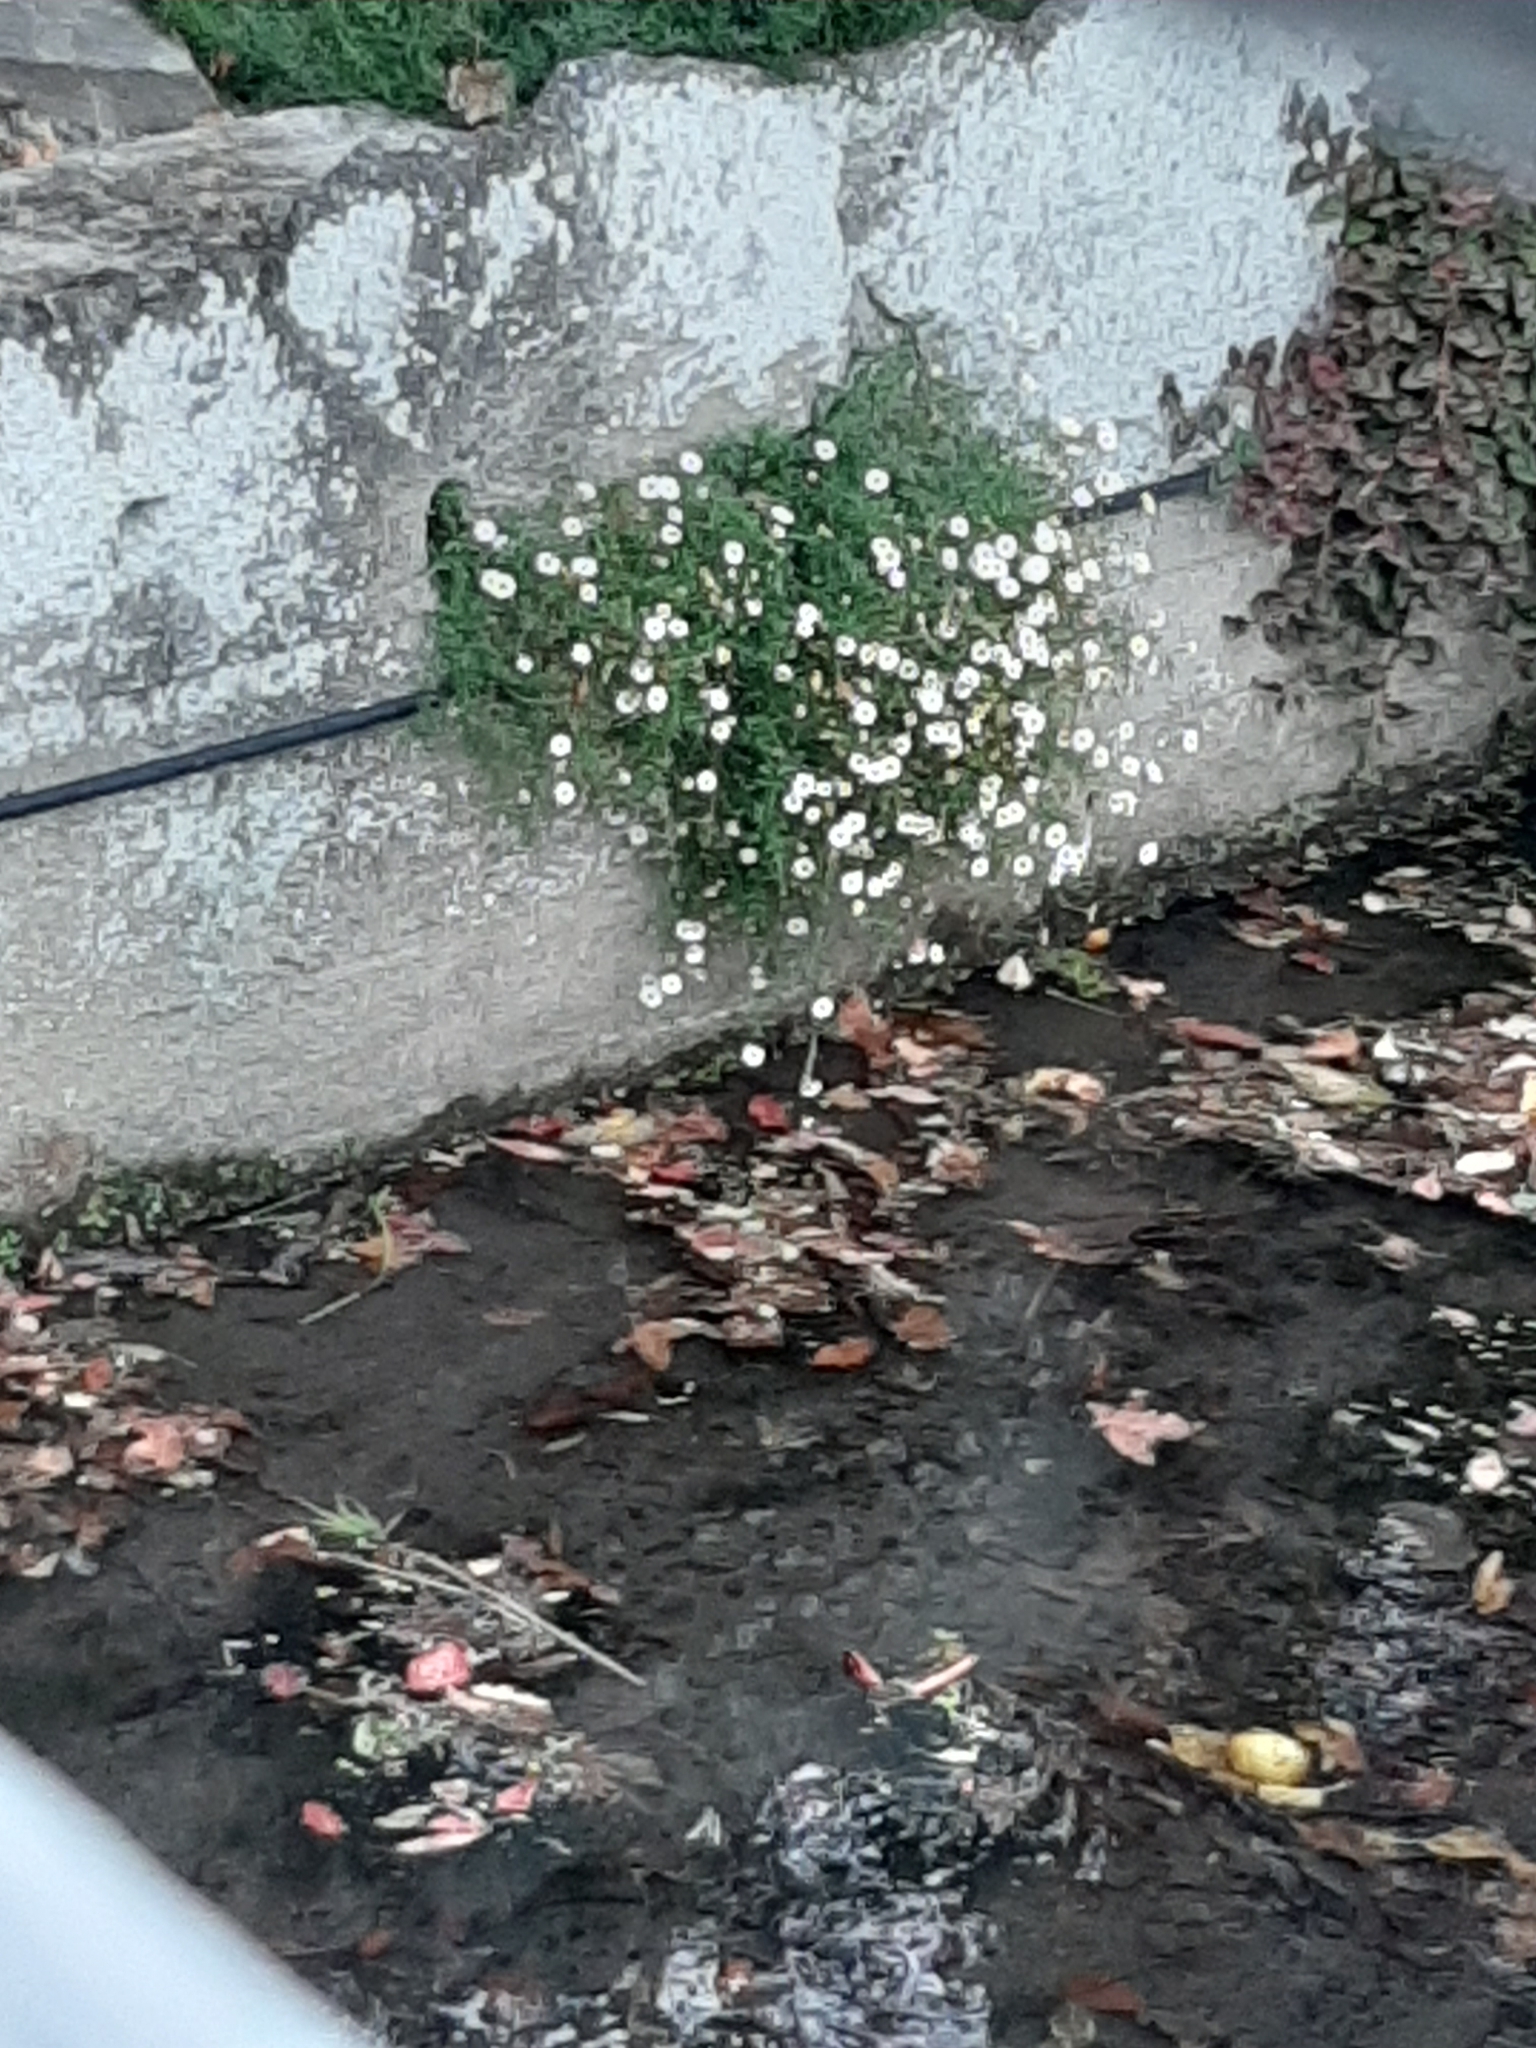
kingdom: Plantae
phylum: Tracheophyta
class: Magnoliopsida
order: Asterales
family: Asteraceae
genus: Erigeron
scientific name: Erigeron karvinskianus
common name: Mexican fleabane
